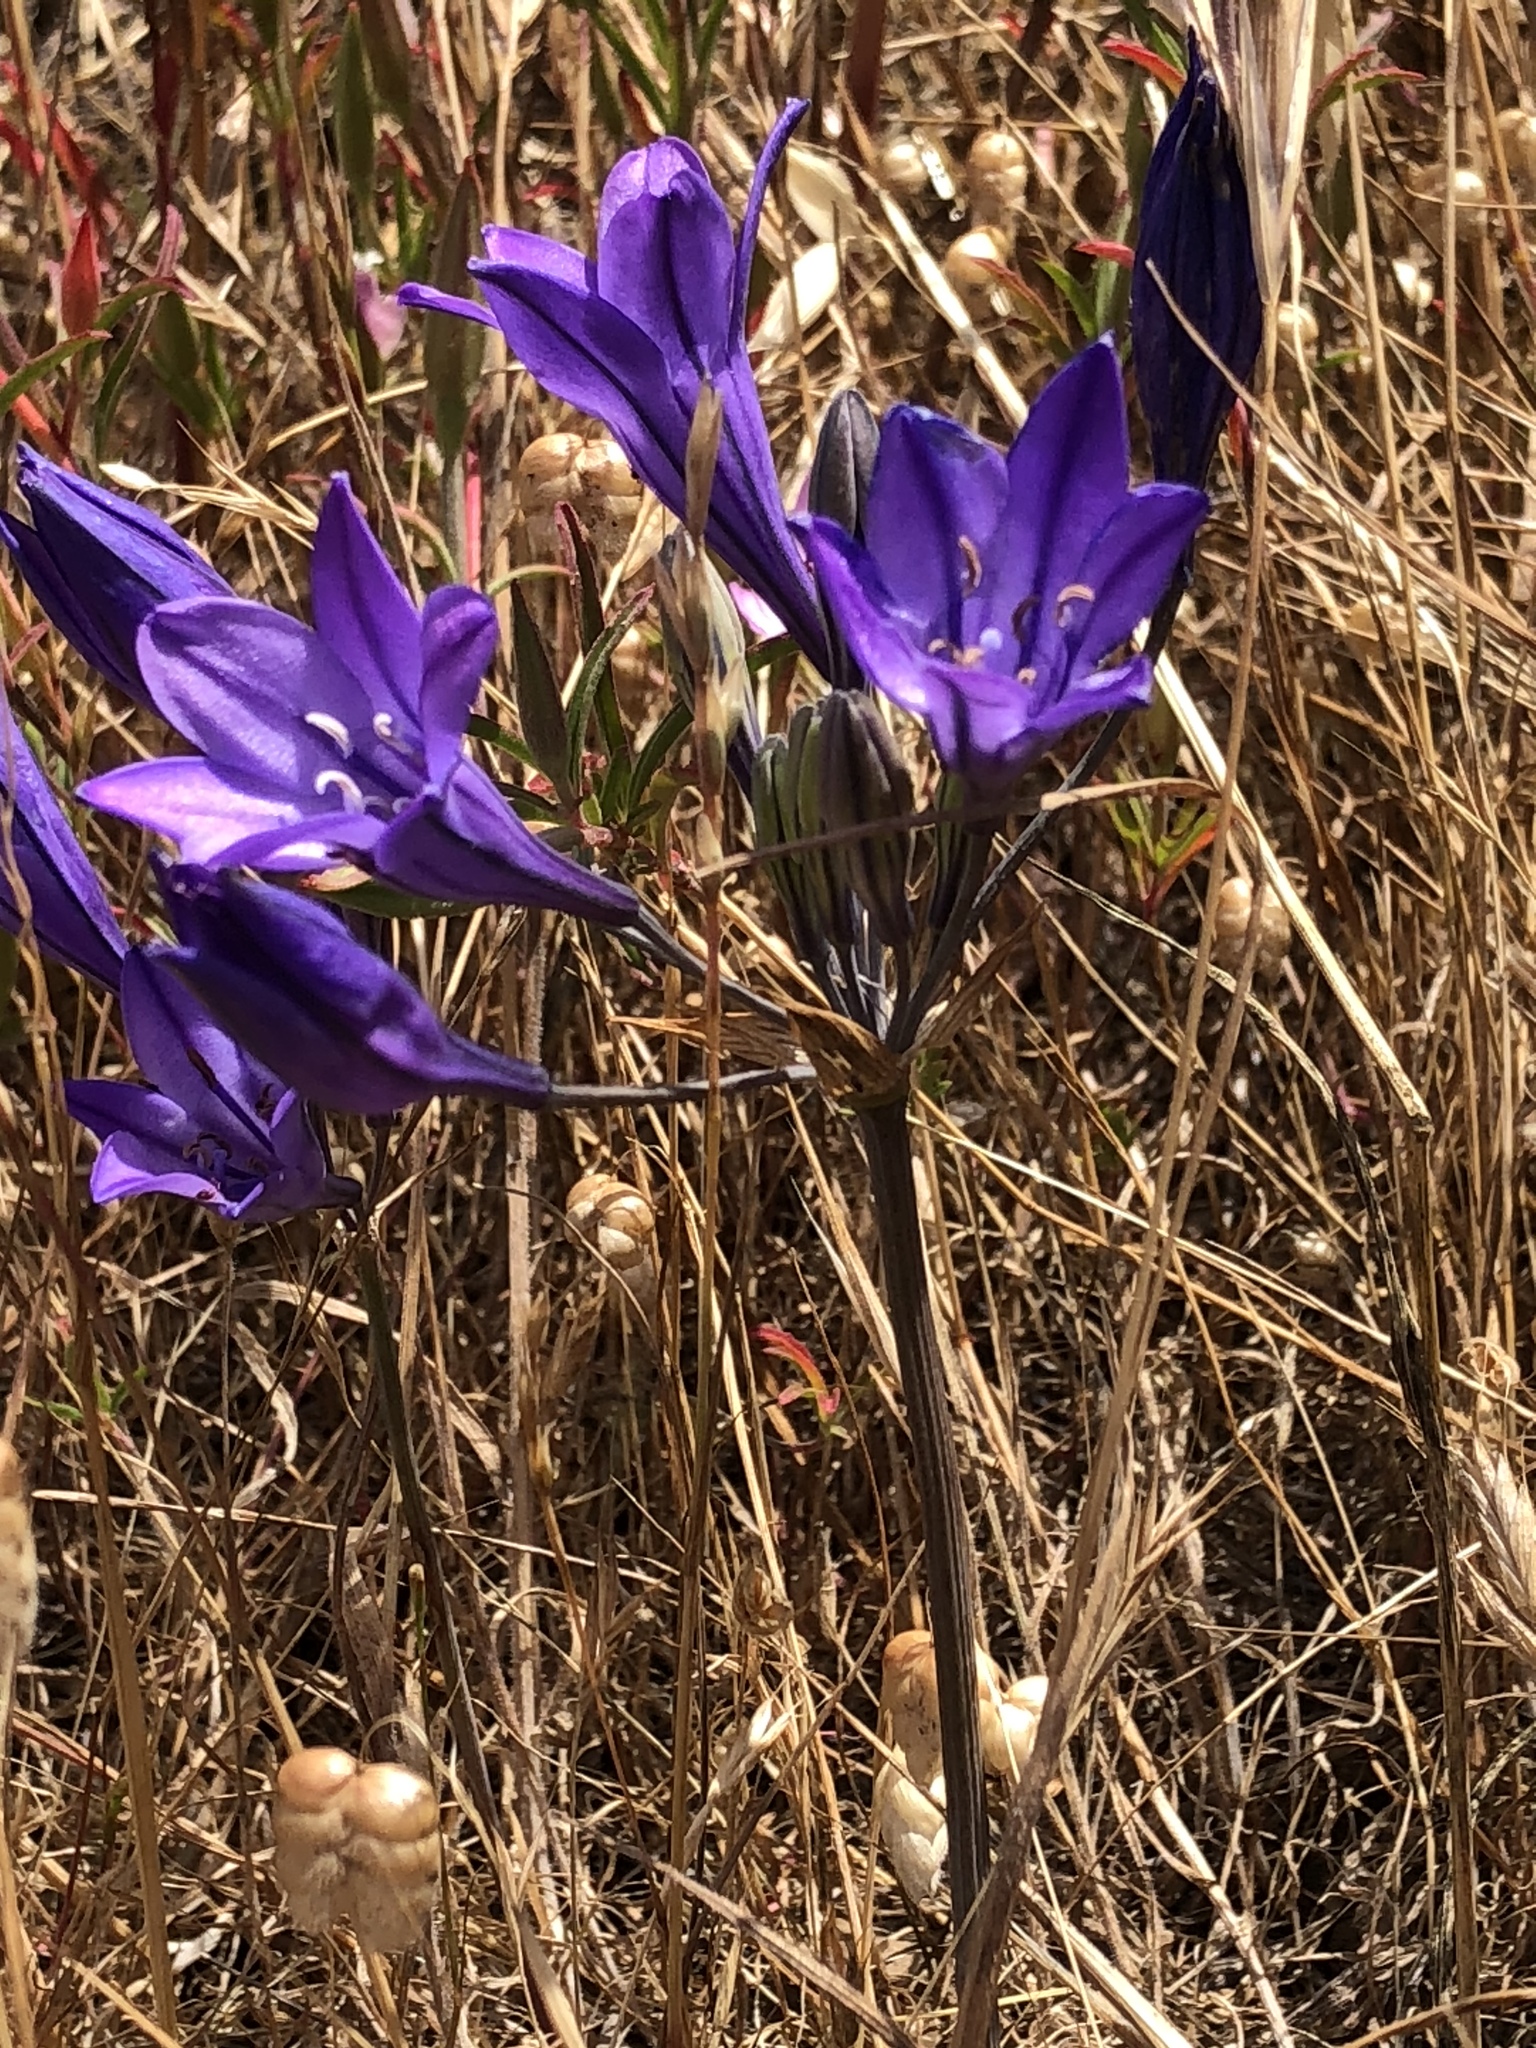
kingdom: Plantae
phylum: Tracheophyta
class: Liliopsida
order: Asparagales
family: Asparagaceae
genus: Triteleia
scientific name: Triteleia laxa
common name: Triplet-lily
